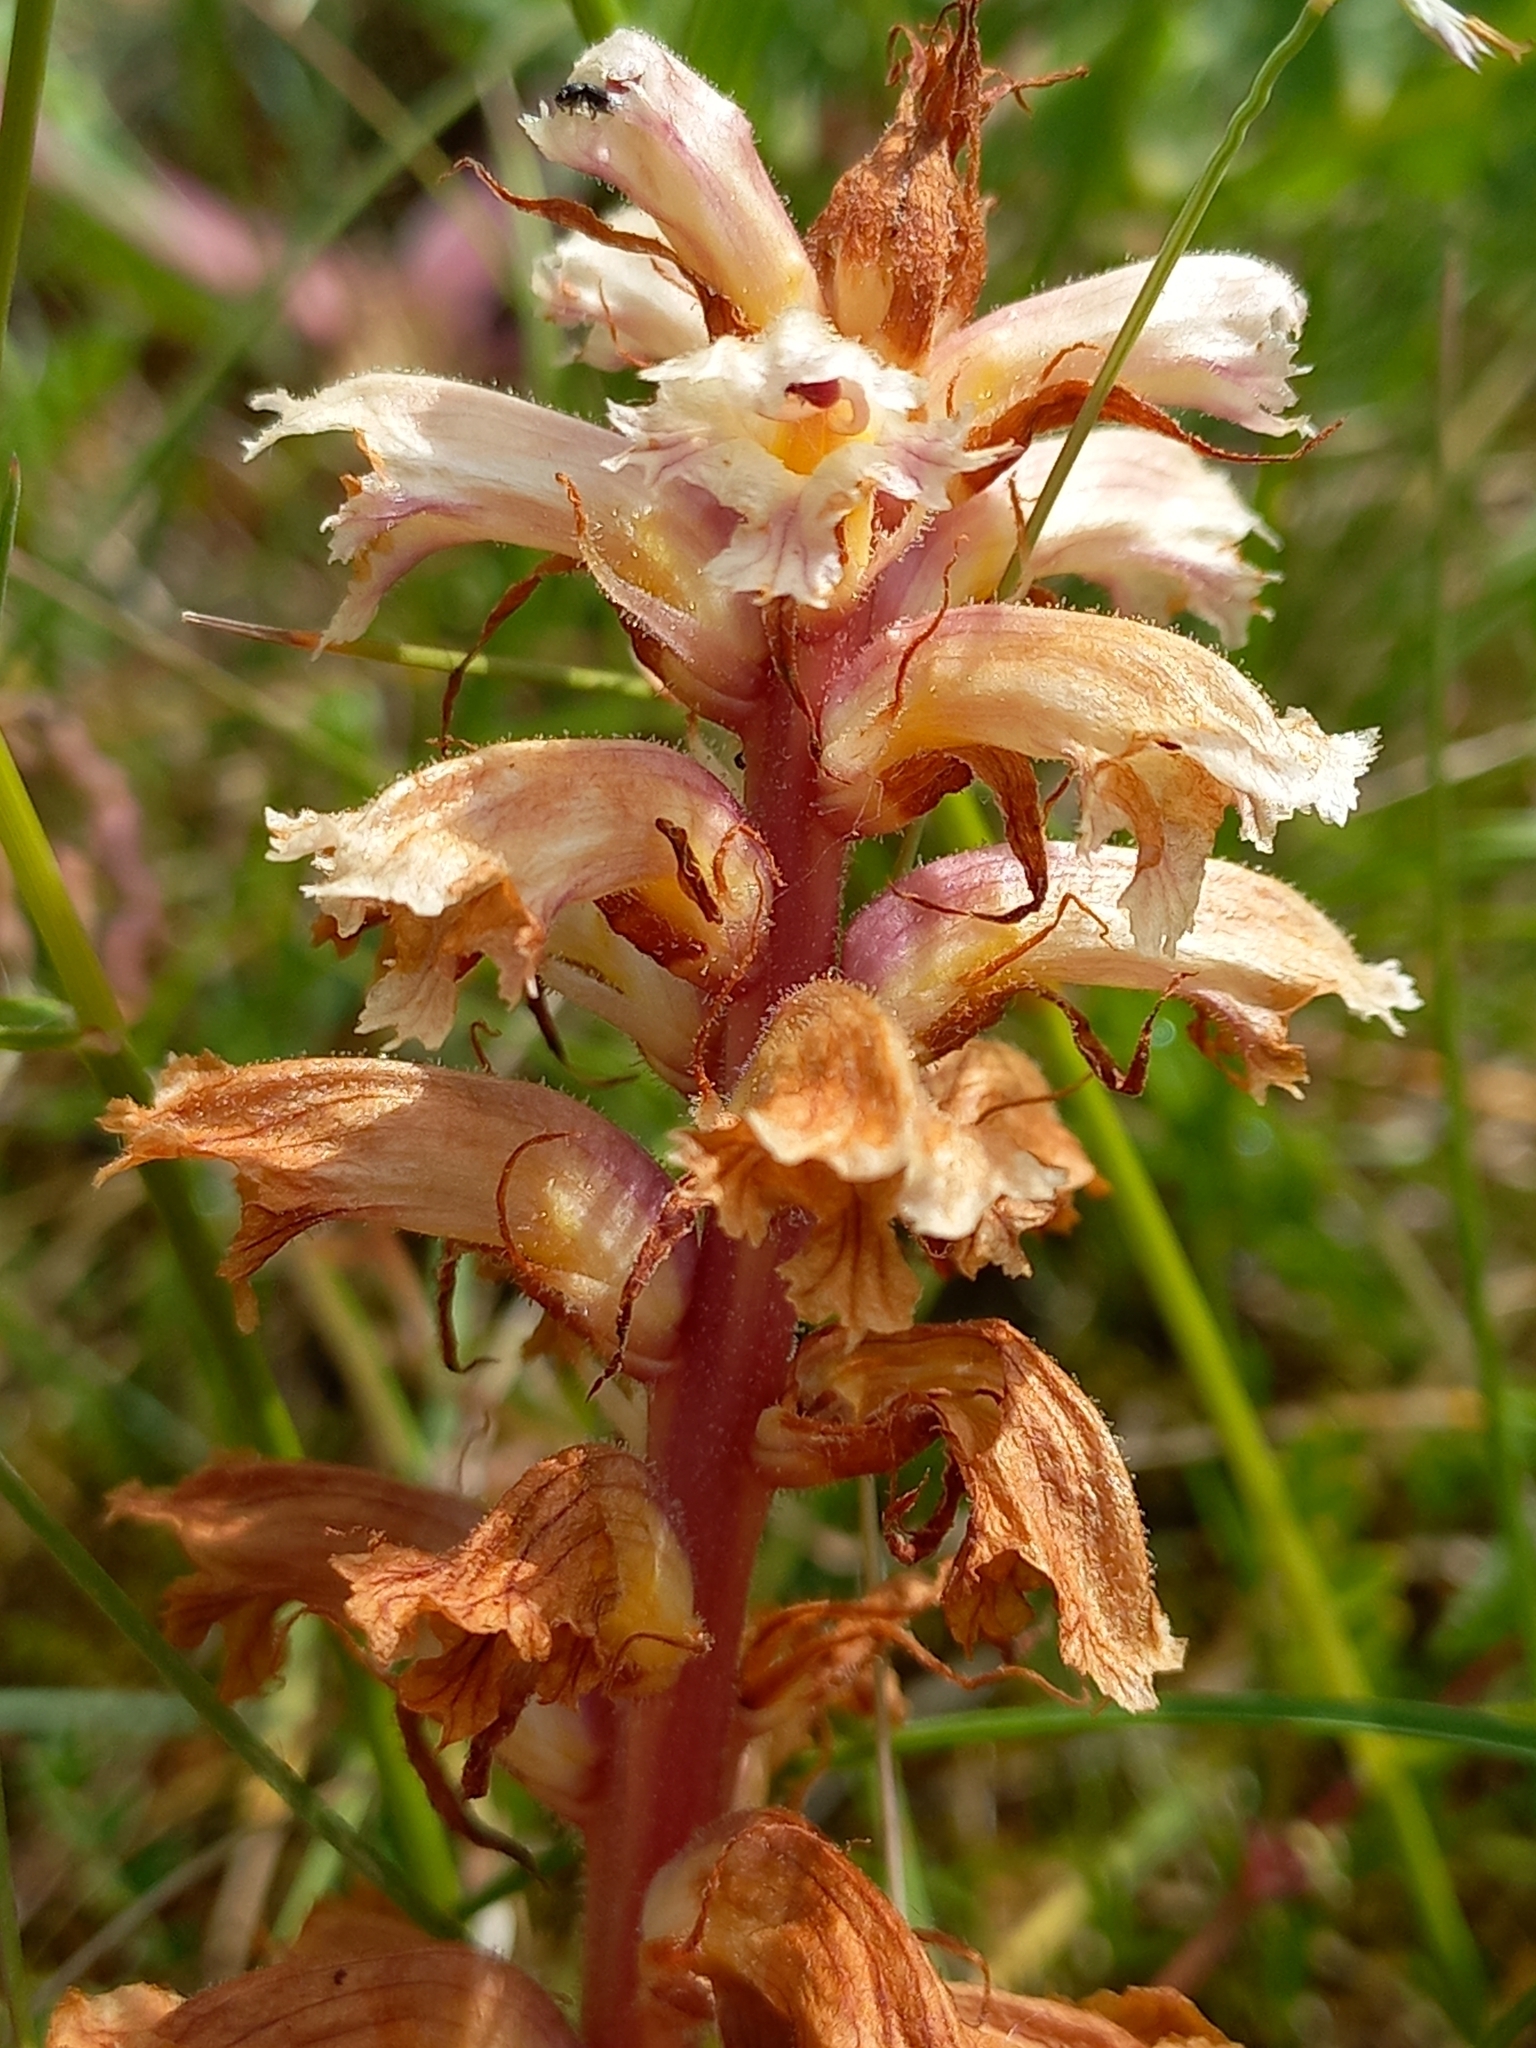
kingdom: Plantae
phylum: Tracheophyta
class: Magnoliopsida
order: Lamiales
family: Orobanchaceae
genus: Orobanche
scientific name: Orobanche amethystea
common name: Amethyst broomrape
